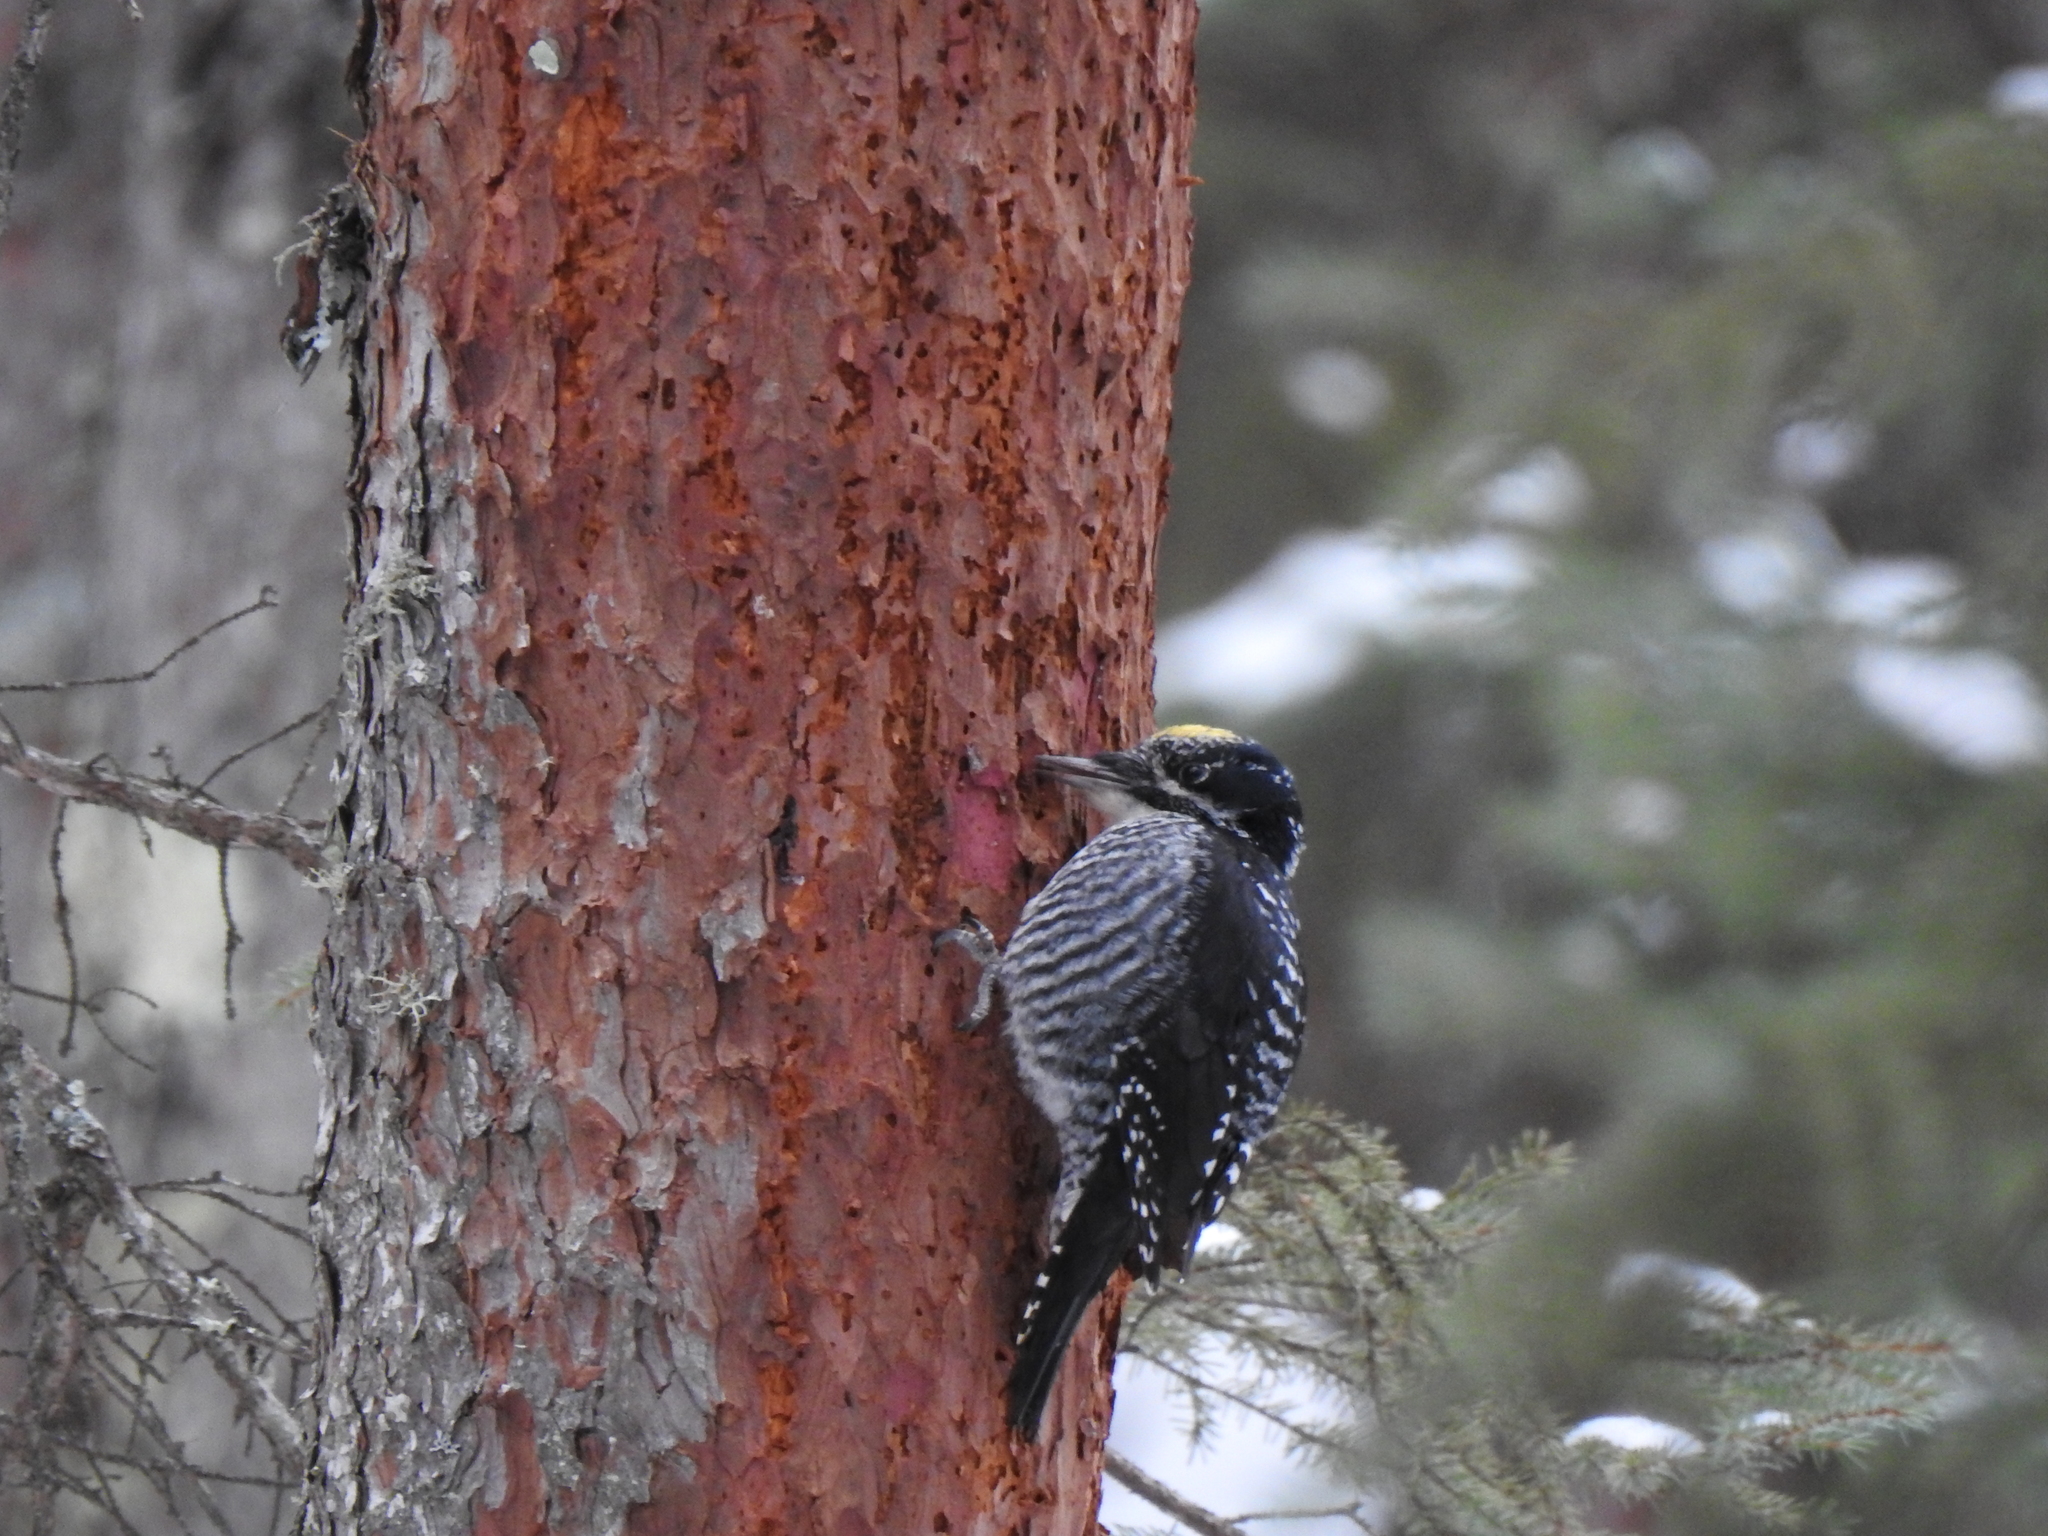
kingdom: Animalia
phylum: Chordata
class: Aves
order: Piciformes
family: Picidae
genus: Picoides
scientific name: Picoides dorsalis
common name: American three-toed woodpecker
